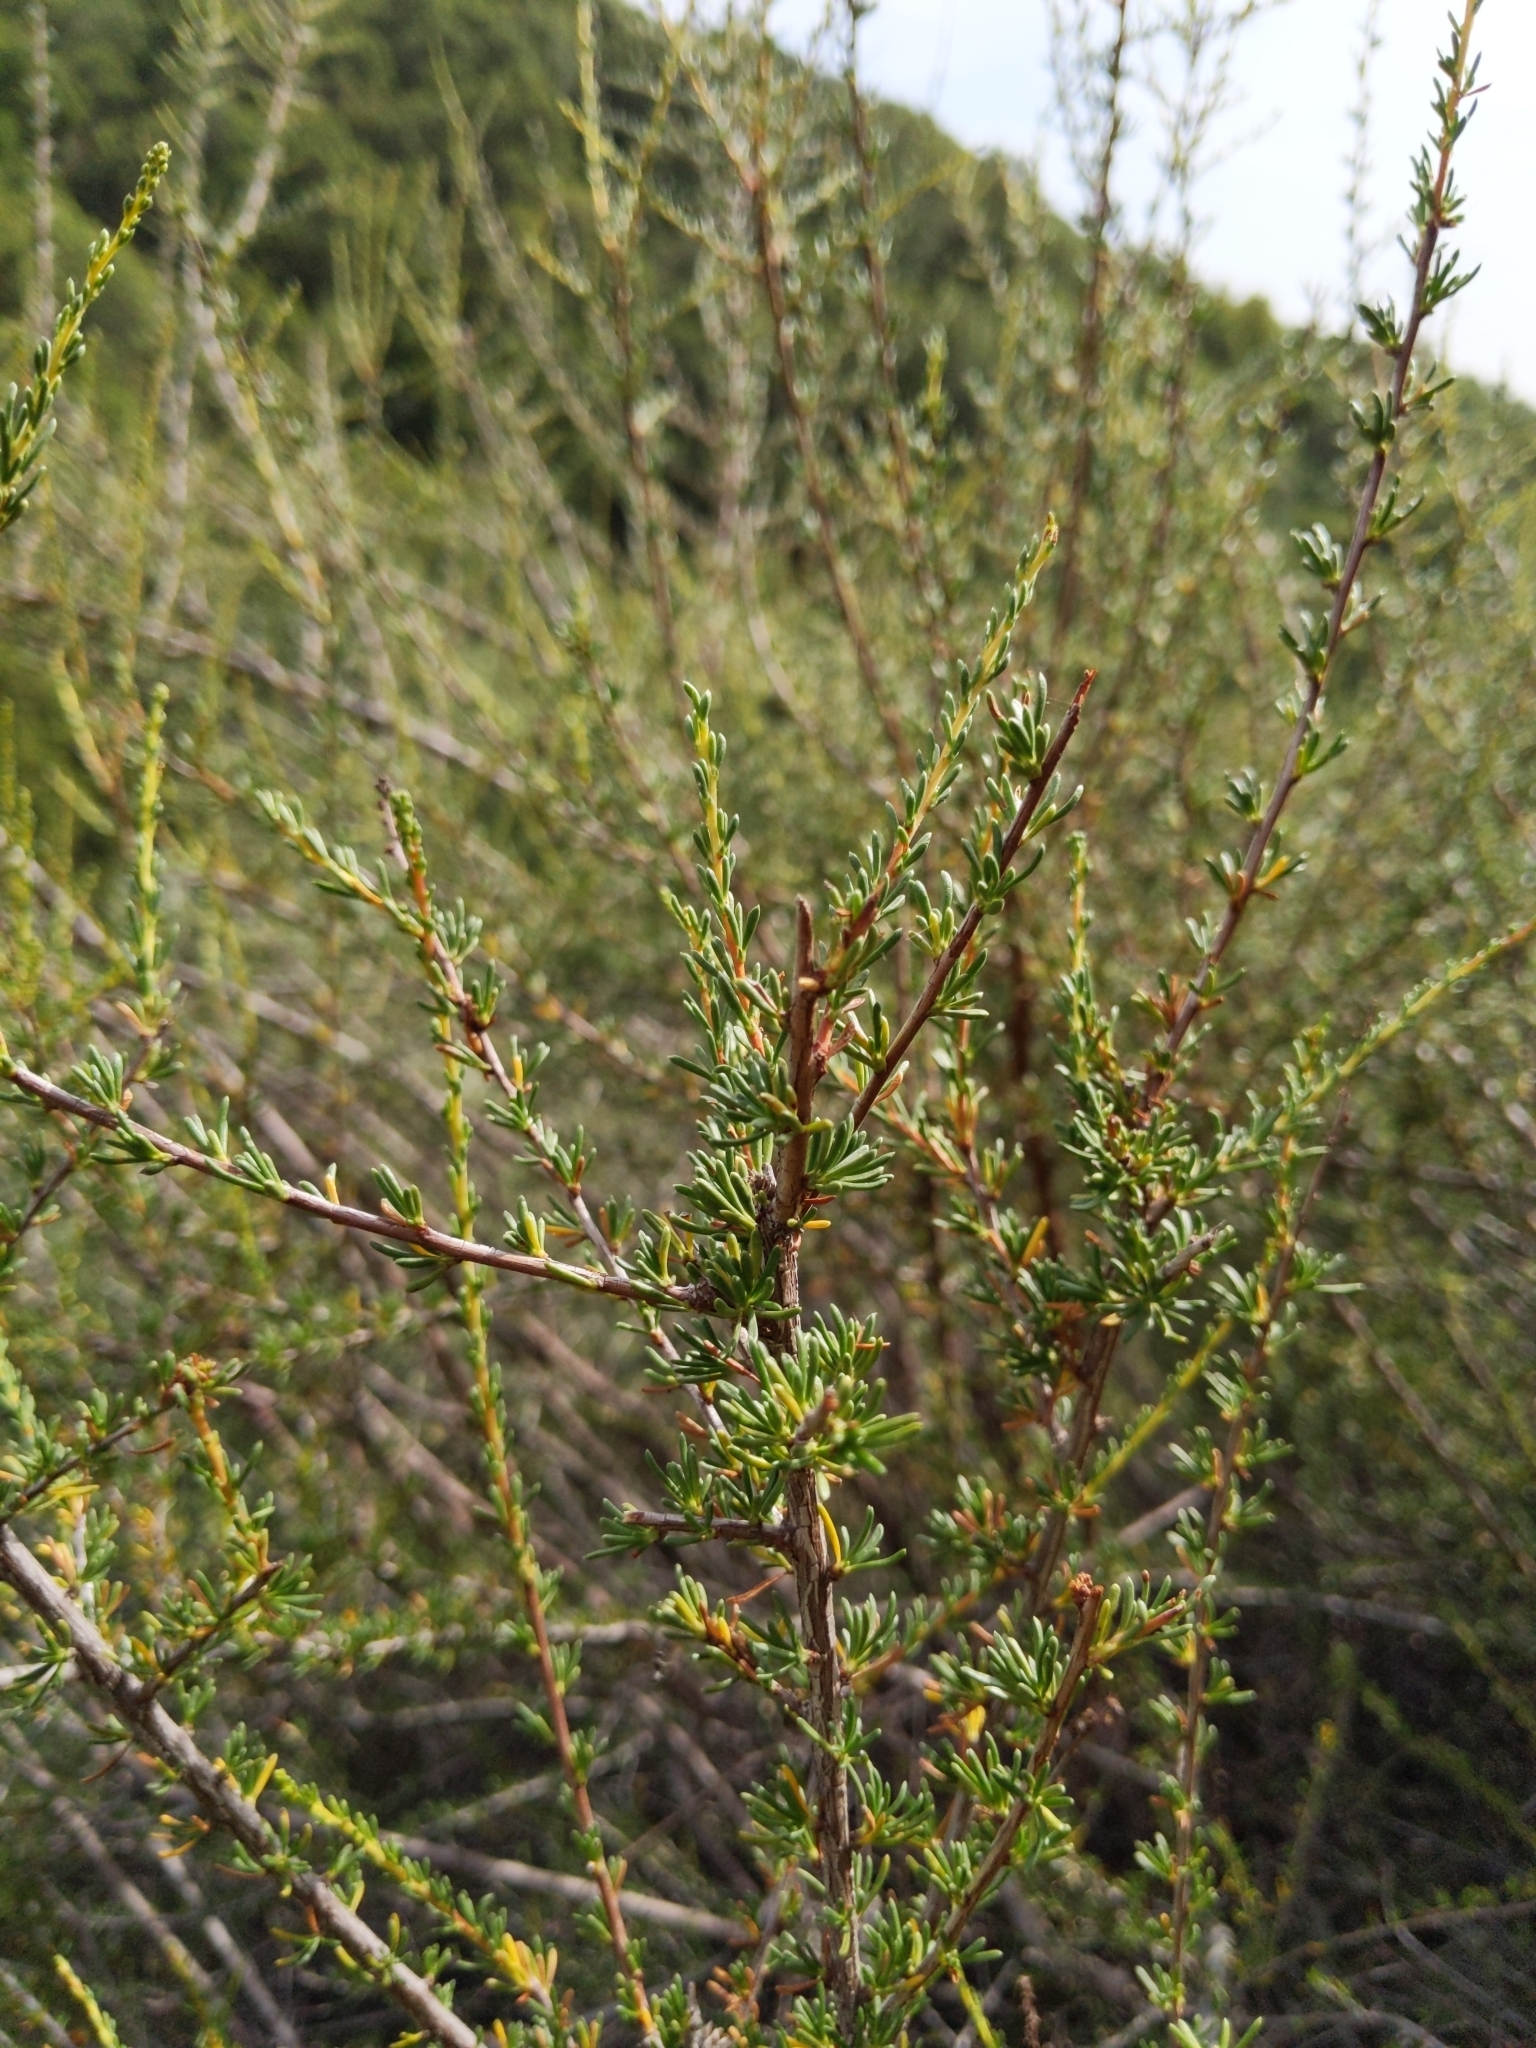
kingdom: Plantae
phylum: Tracheophyta
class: Magnoliopsida
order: Rosales
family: Rosaceae
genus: Adenostoma
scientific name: Adenostoma fasciculatum
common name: Chamise
